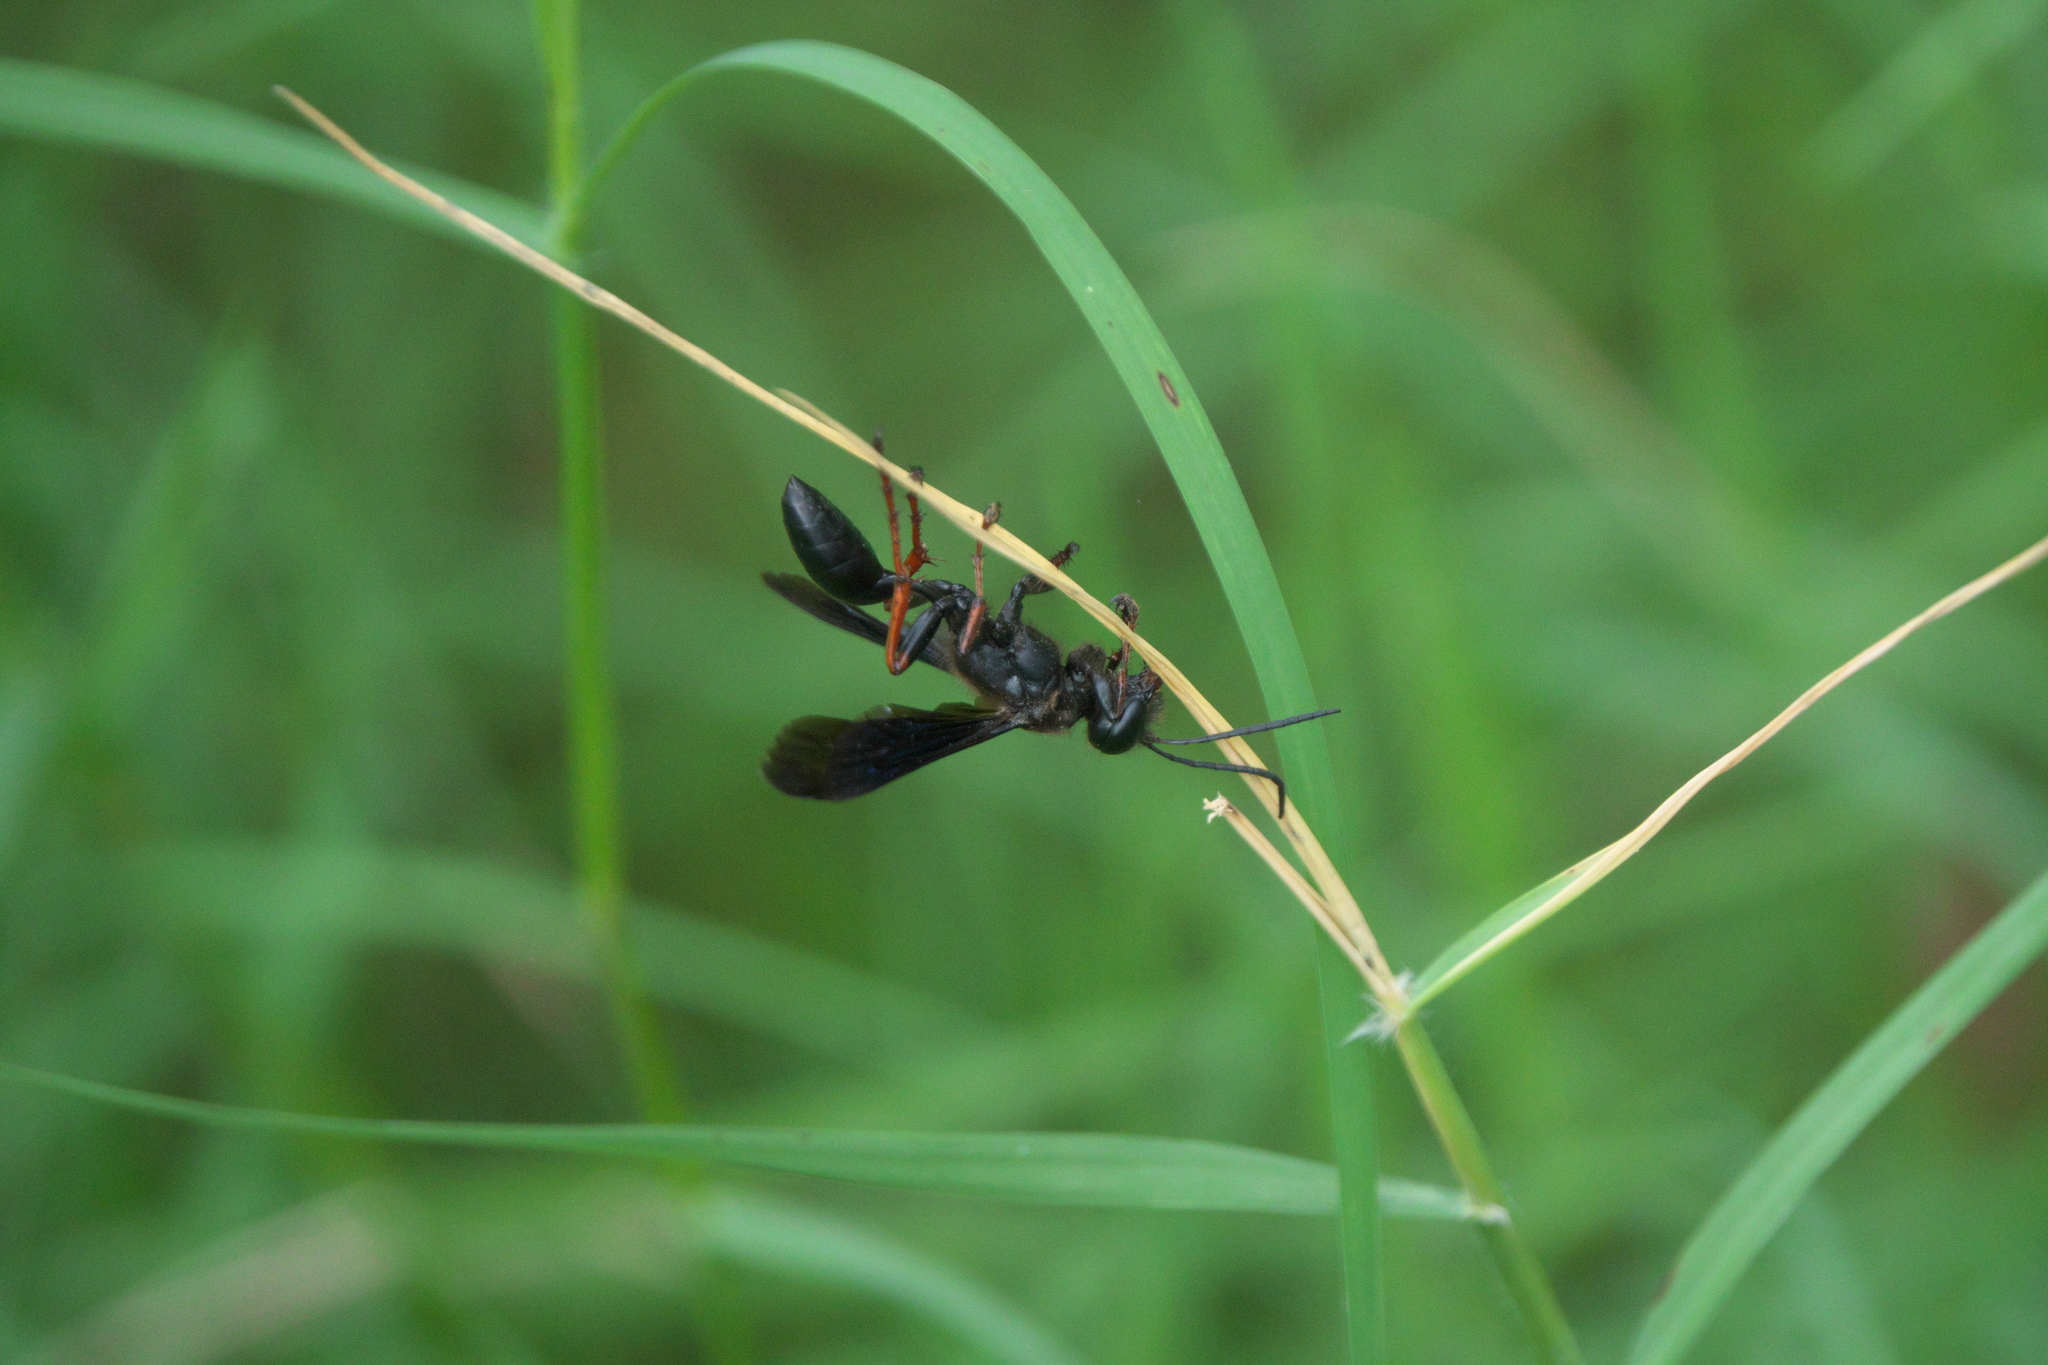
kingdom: Animalia
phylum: Arthropoda
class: Insecta
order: Hymenoptera
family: Sphecidae
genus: Isodontia
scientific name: Isodontia auripes
